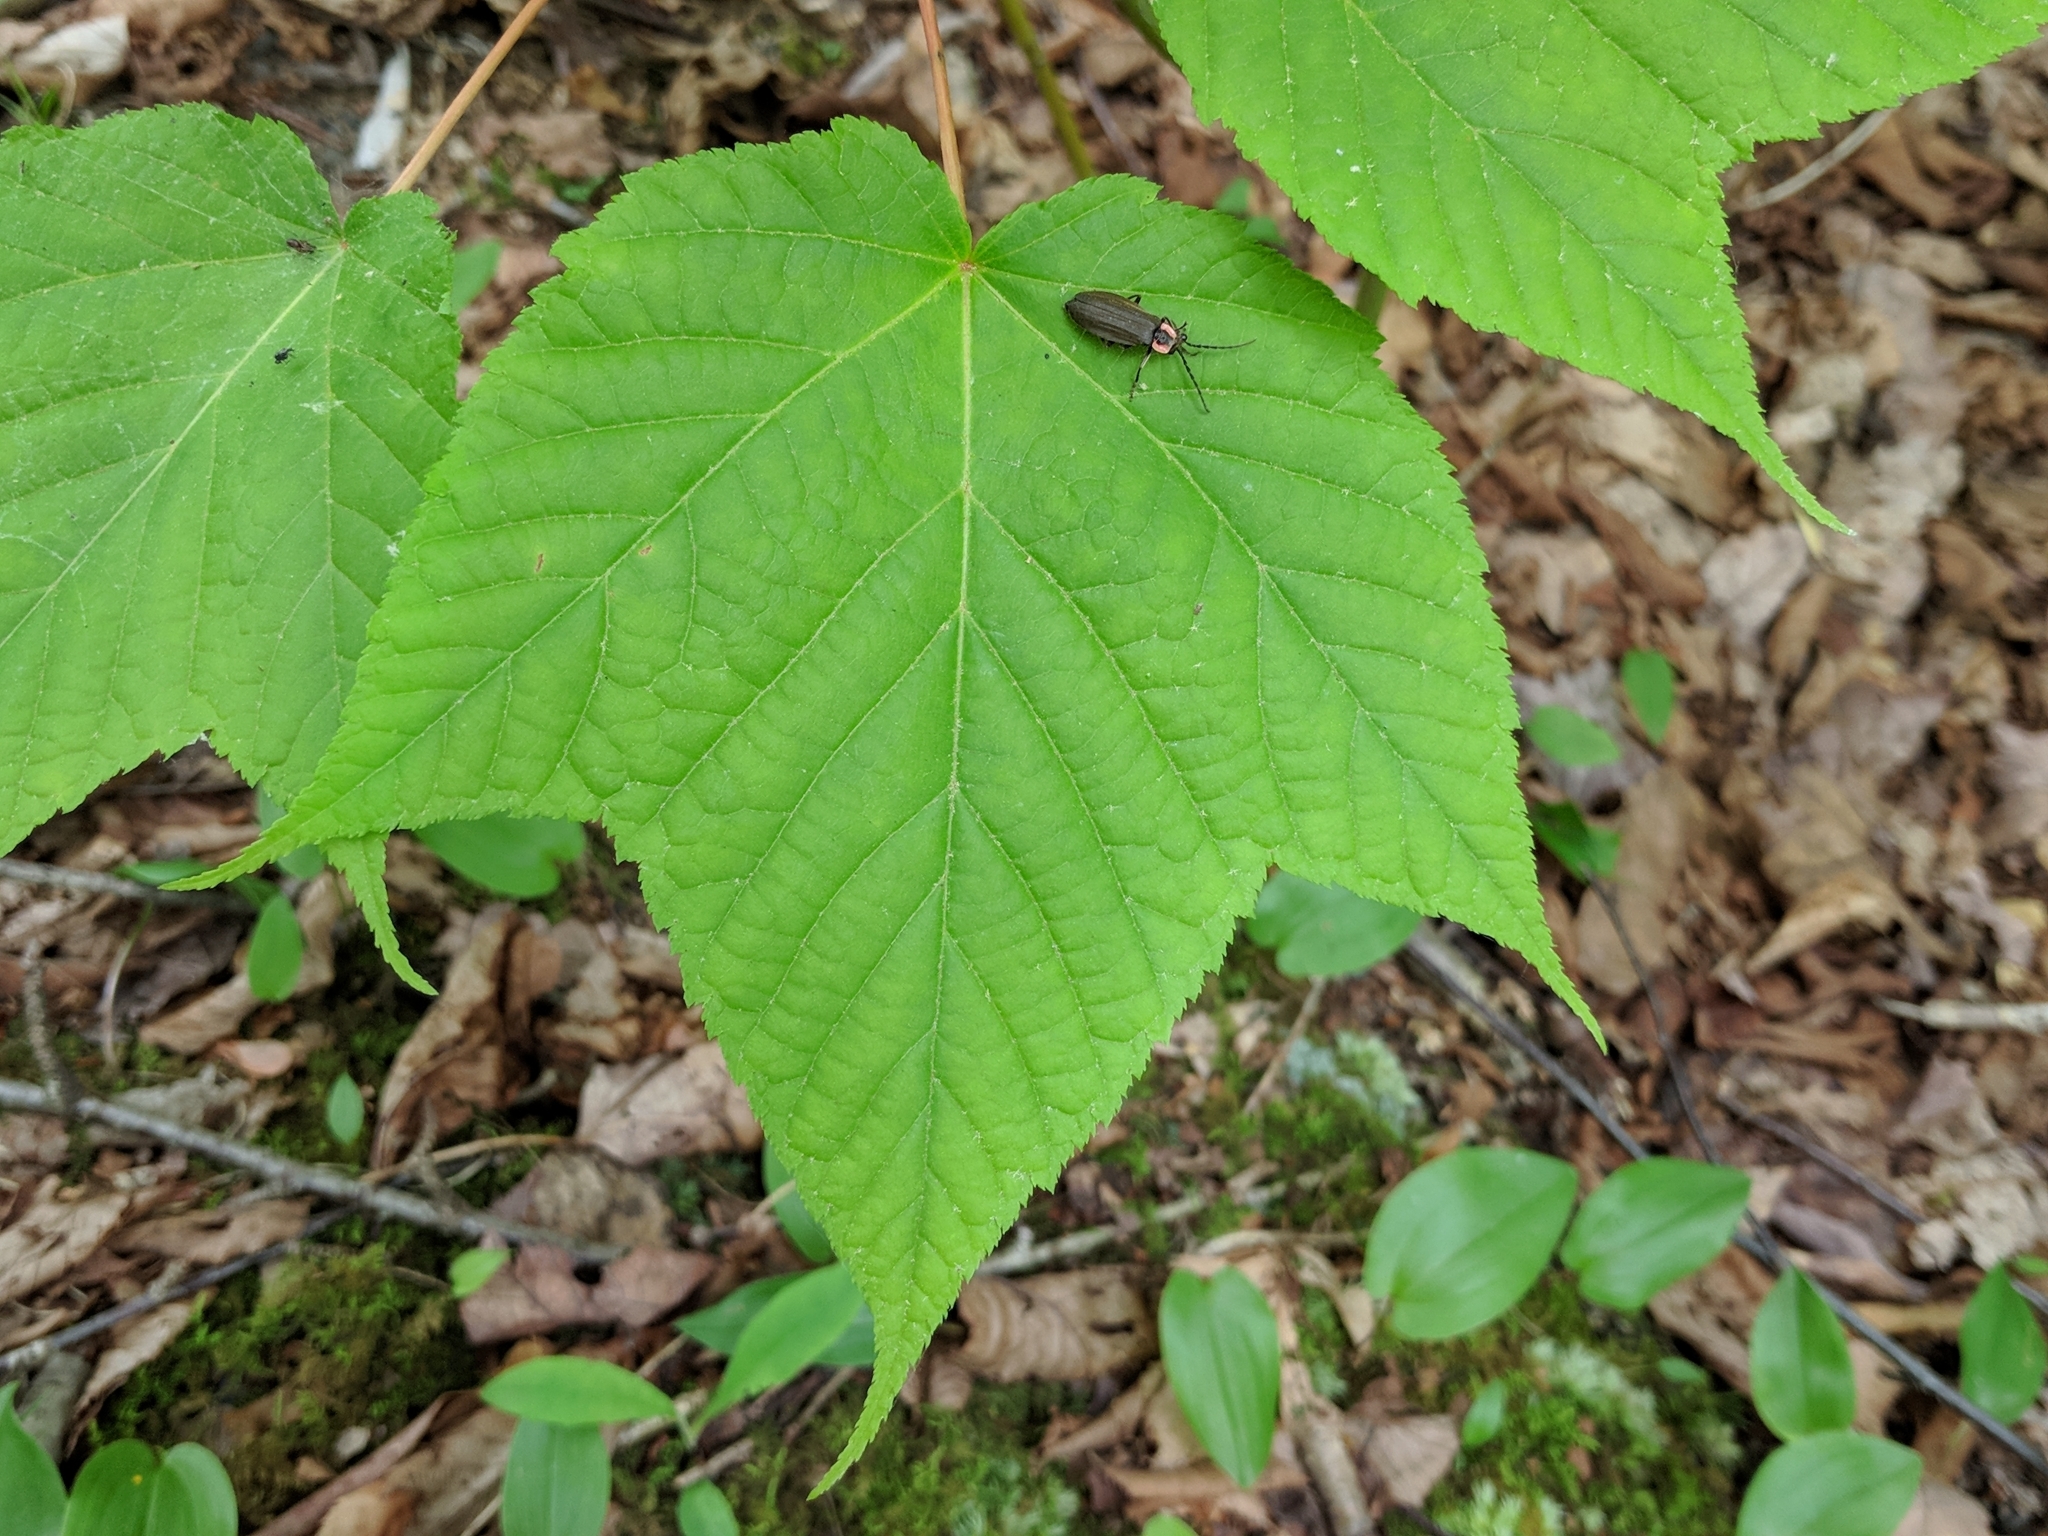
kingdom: Plantae
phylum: Tracheophyta
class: Magnoliopsida
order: Sapindales
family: Sapindaceae
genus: Acer
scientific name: Acer pensylvanicum
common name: Moosewood
